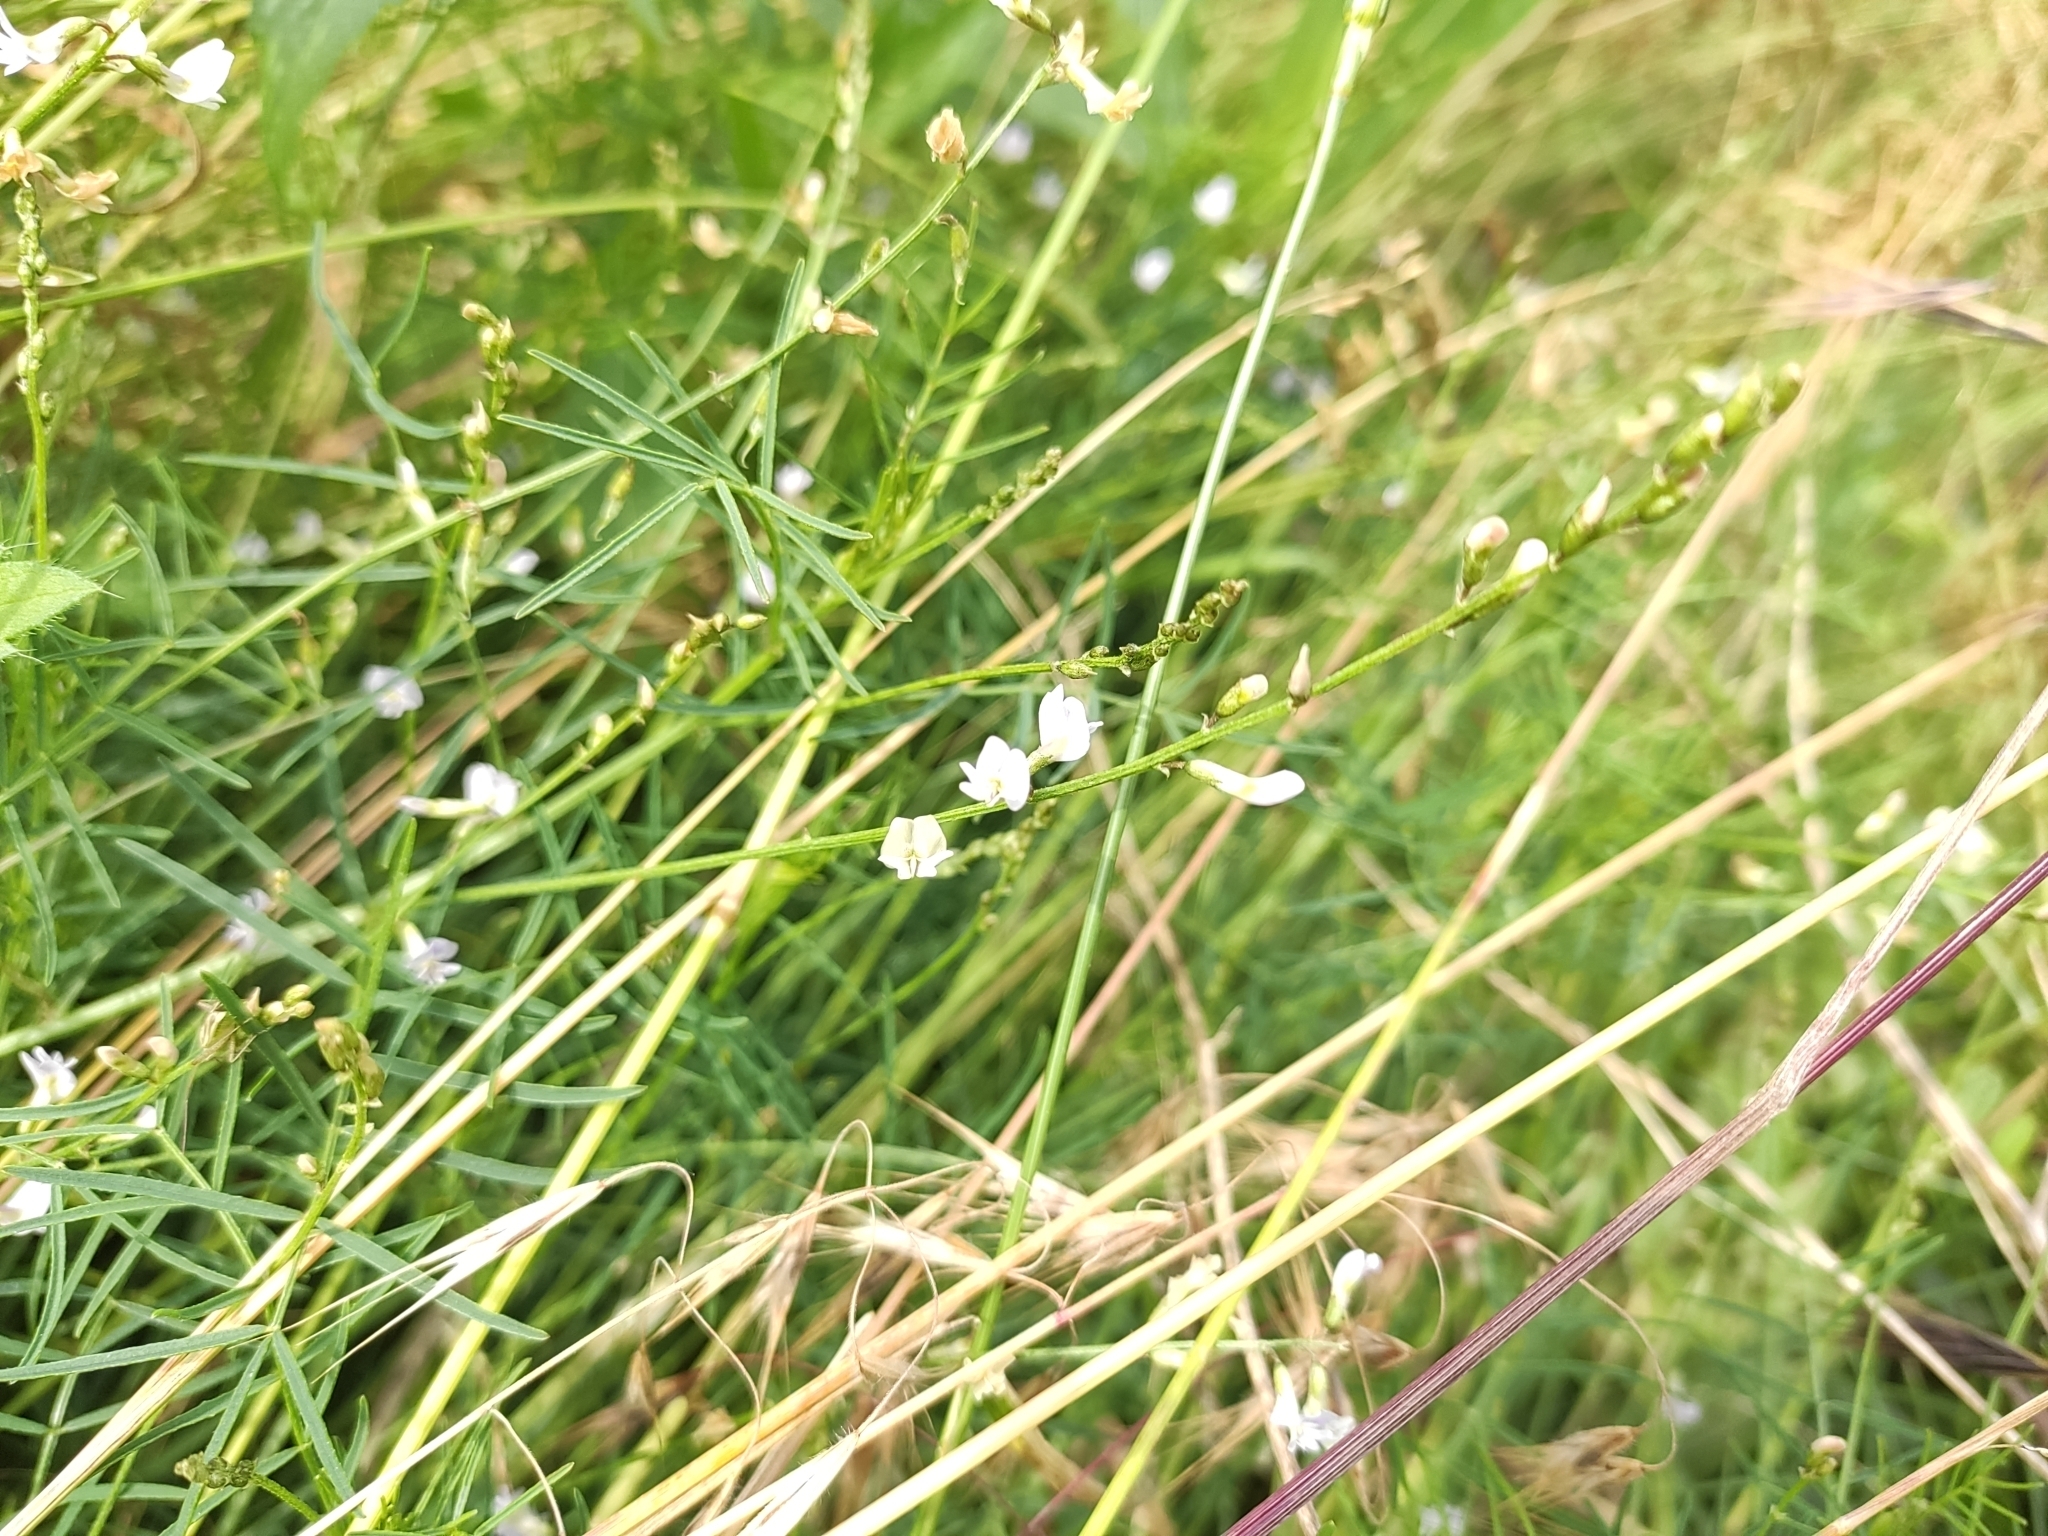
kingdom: Plantae
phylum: Tracheophyta
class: Magnoliopsida
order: Fabales
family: Fabaceae
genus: Astragalus
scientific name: Astragalus austriacus
